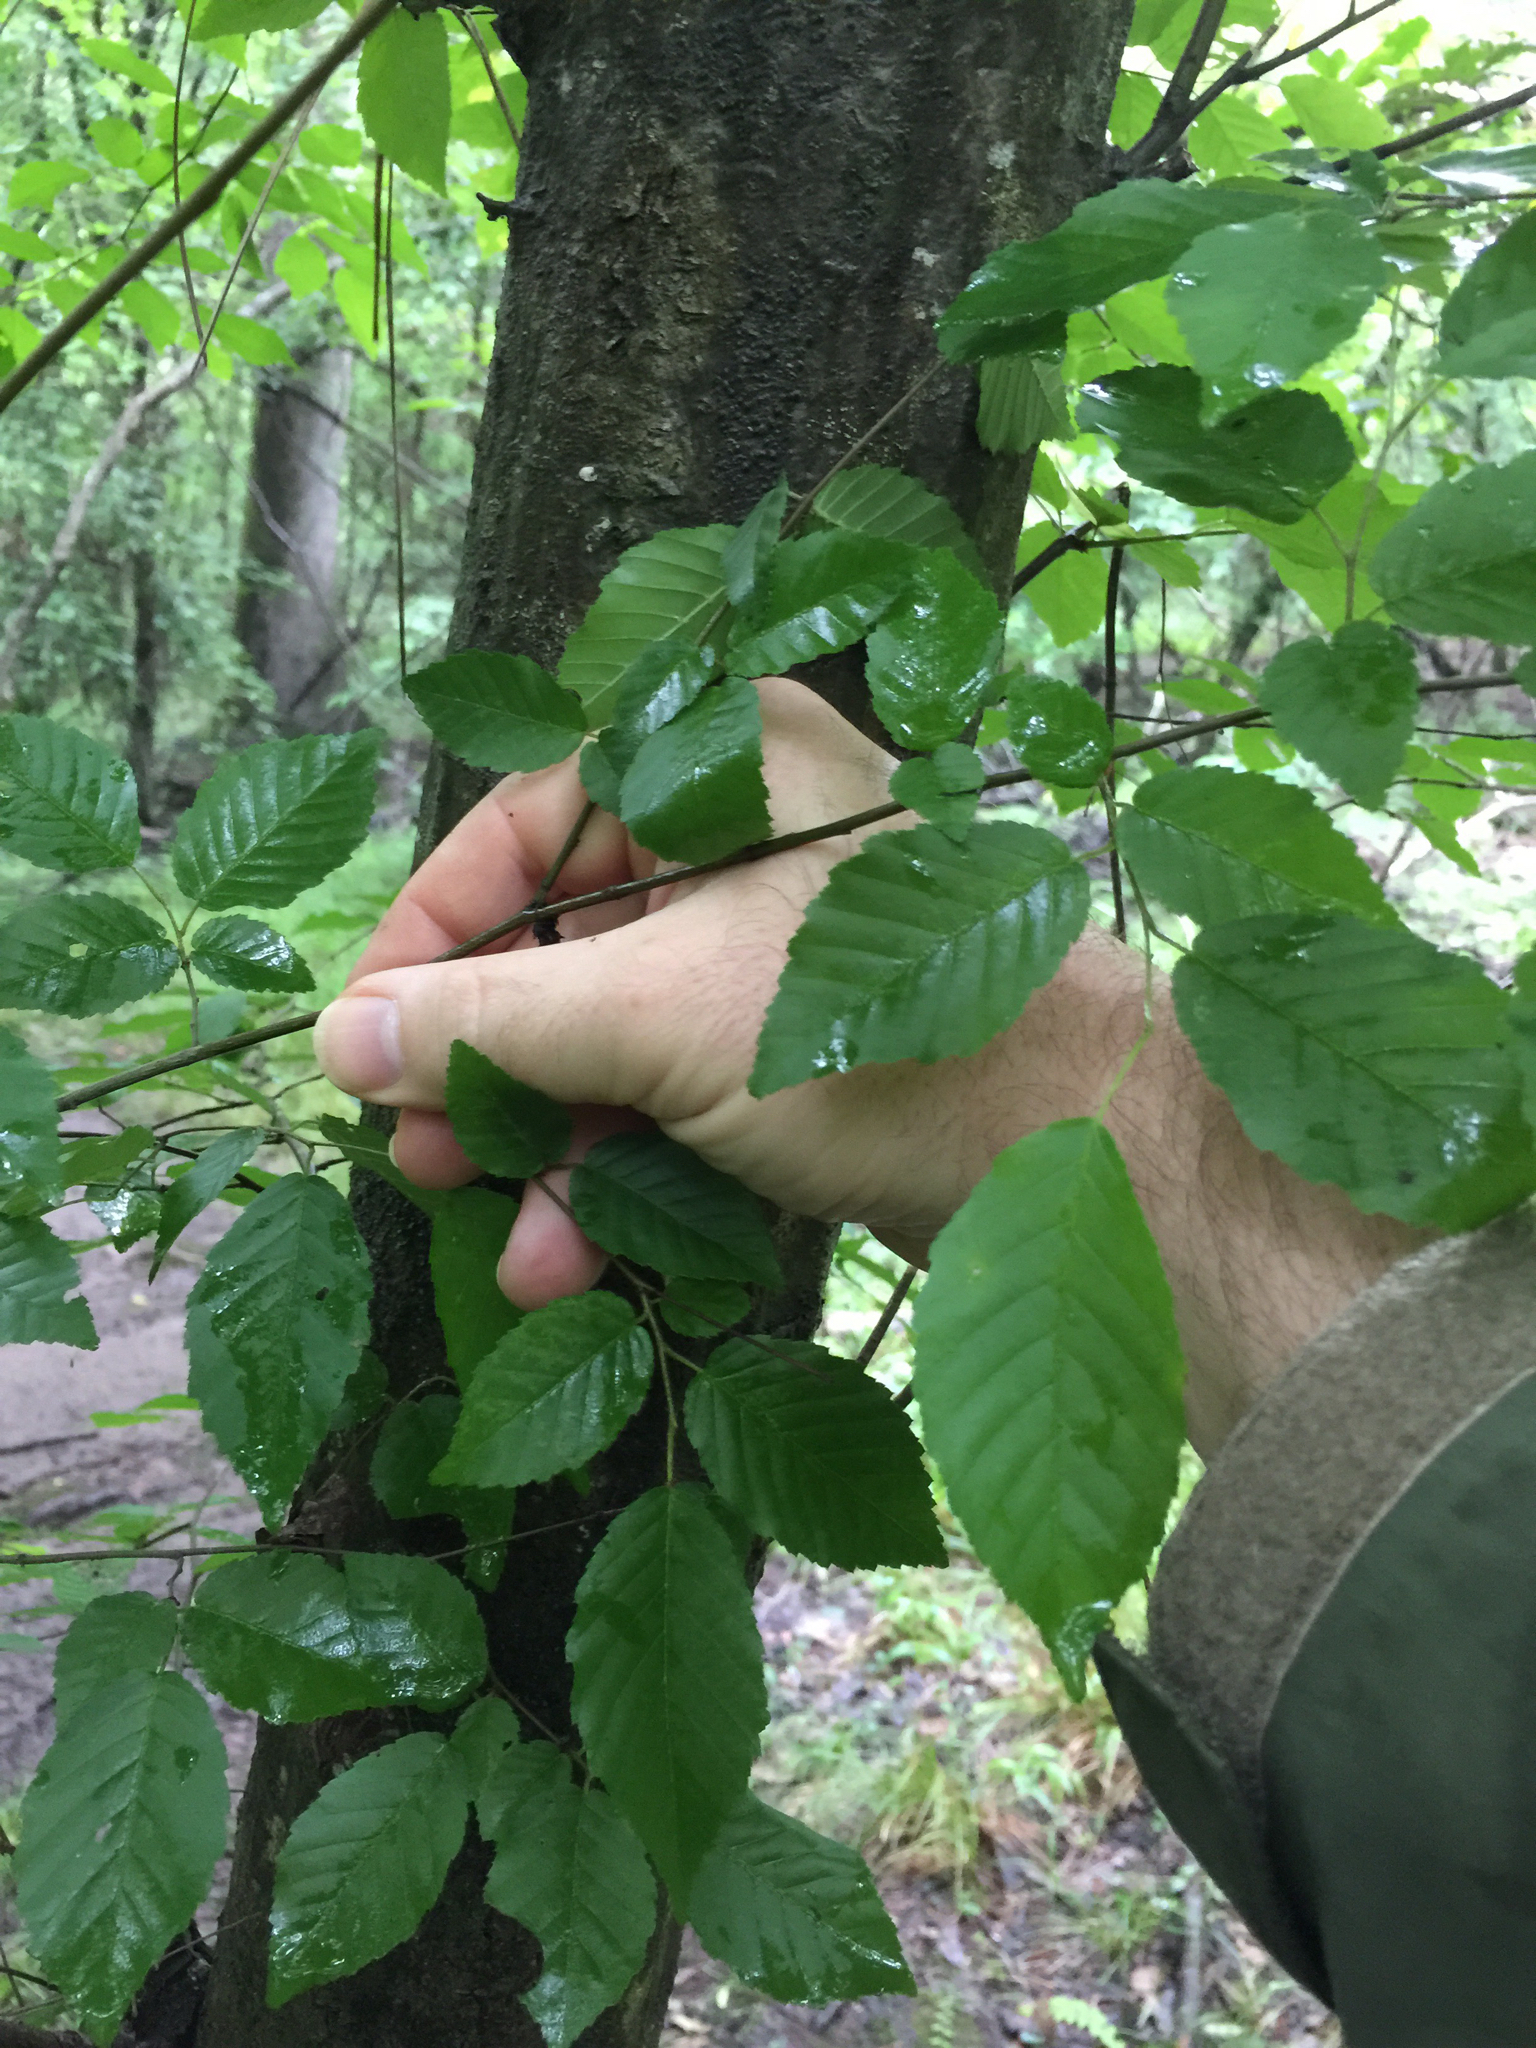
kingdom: Plantae
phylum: Tracheophyta
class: Magnoliopsida
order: Fagales
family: Betulaceae
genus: Carpinus
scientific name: Carpinus caroliniana
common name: American hornbeam
